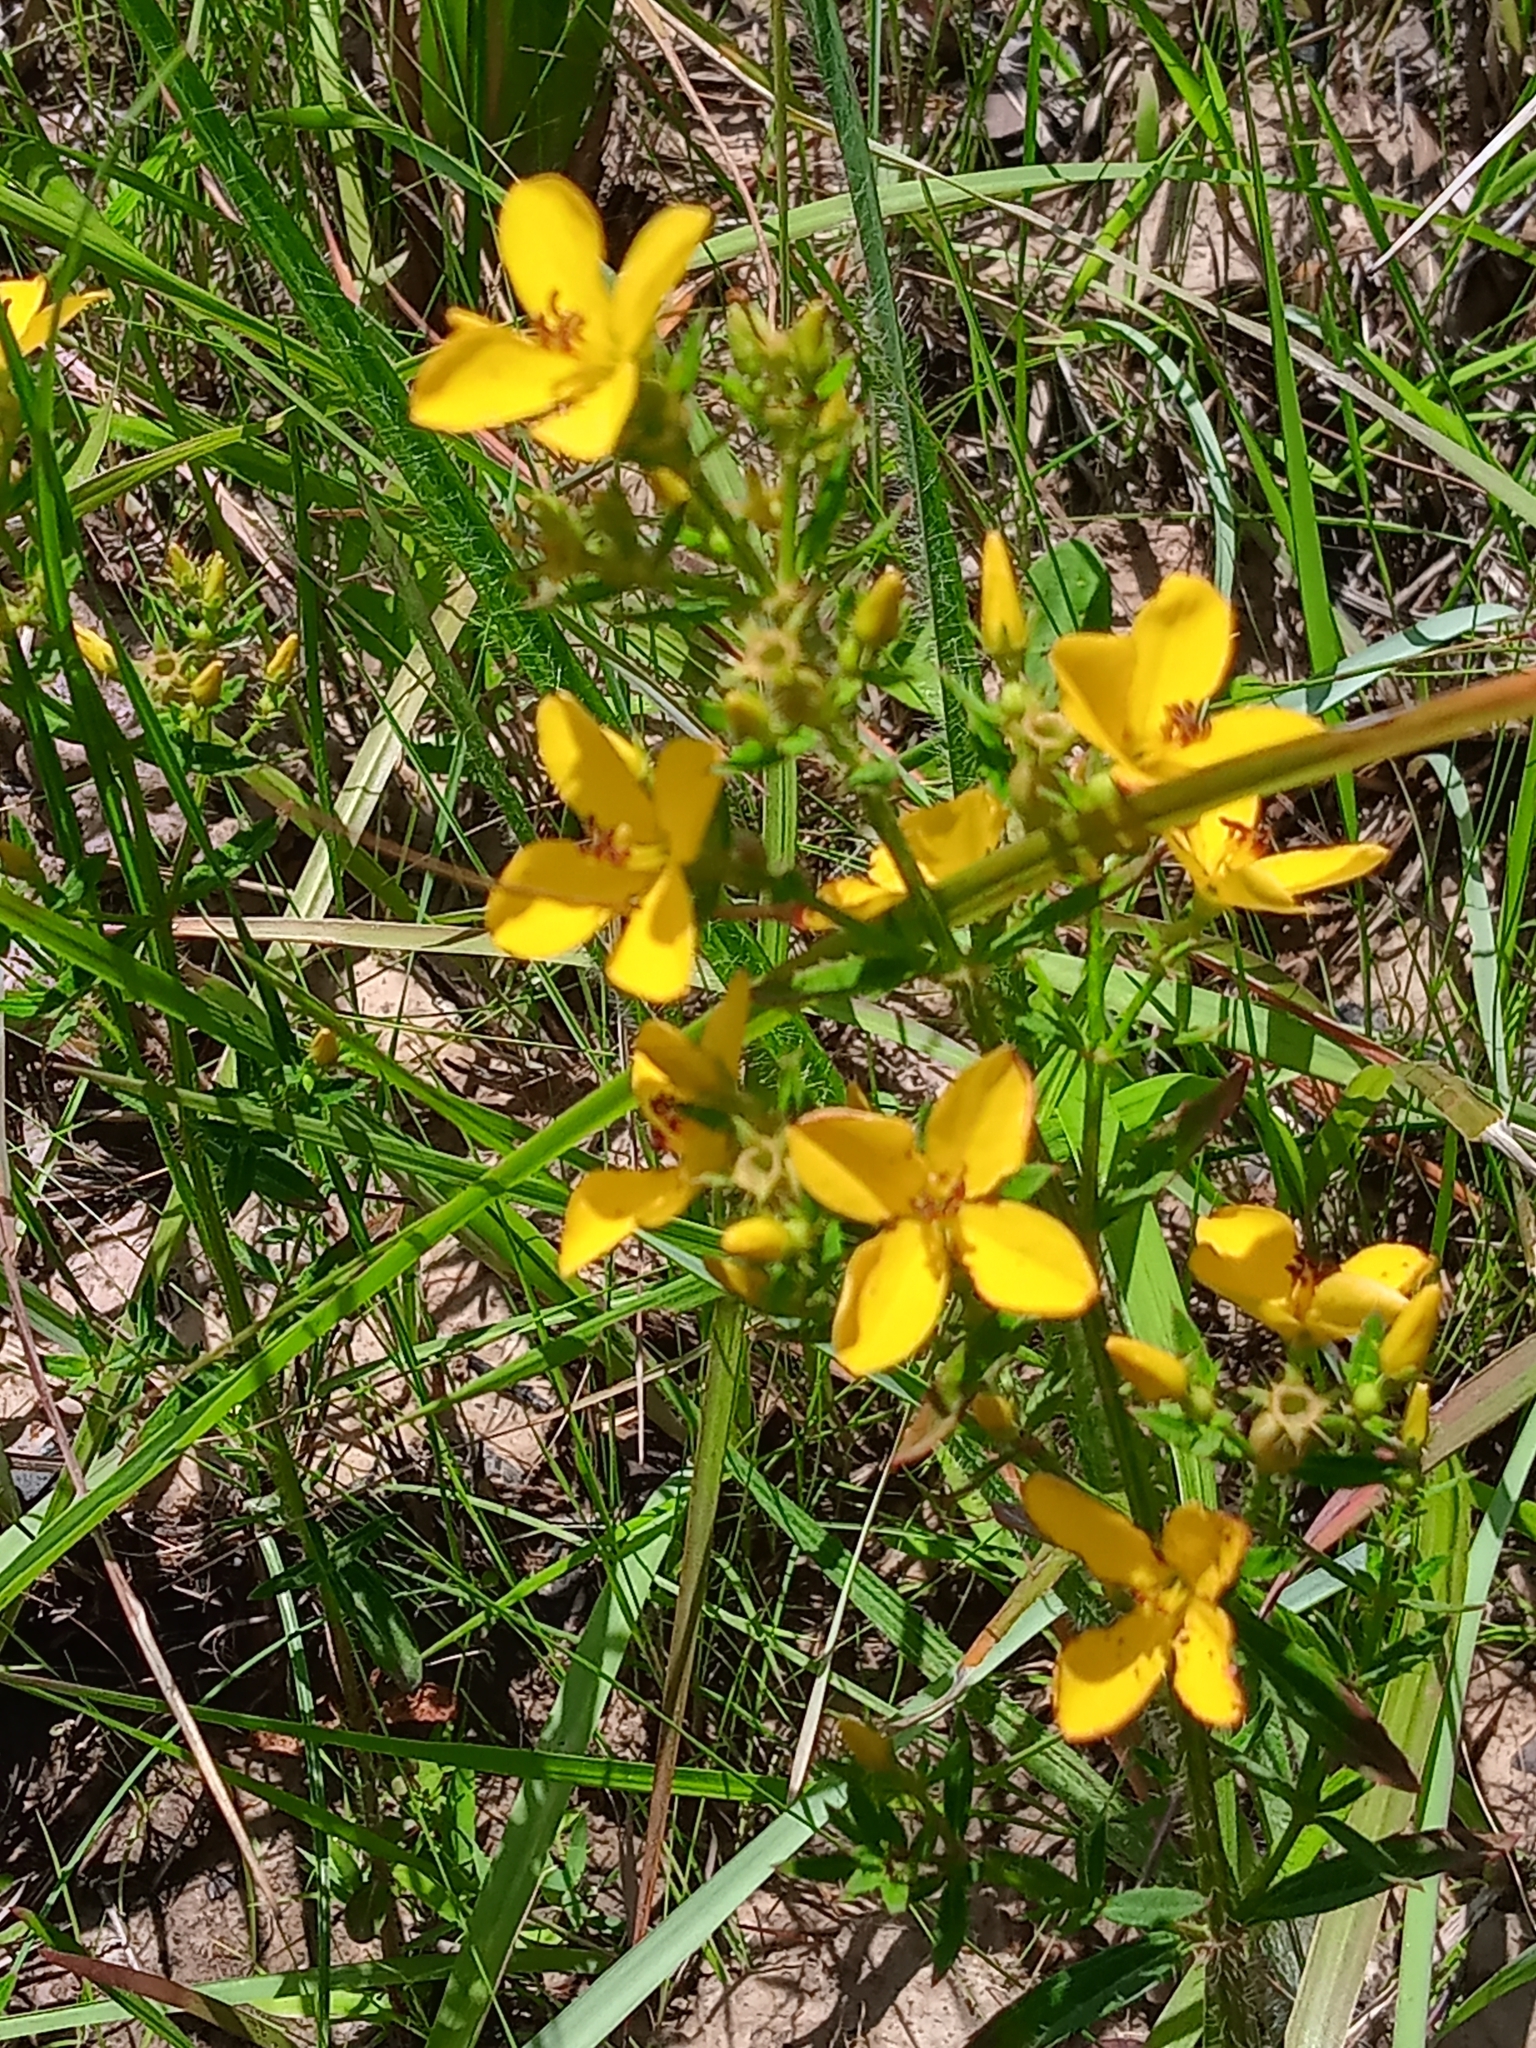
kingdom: Plantae
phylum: Tracheophyta
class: Magnoliopsida
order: Myrtales
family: Melastomataceae
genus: Rhexia
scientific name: Rhexia lutea
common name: Golden meadow-beauty
